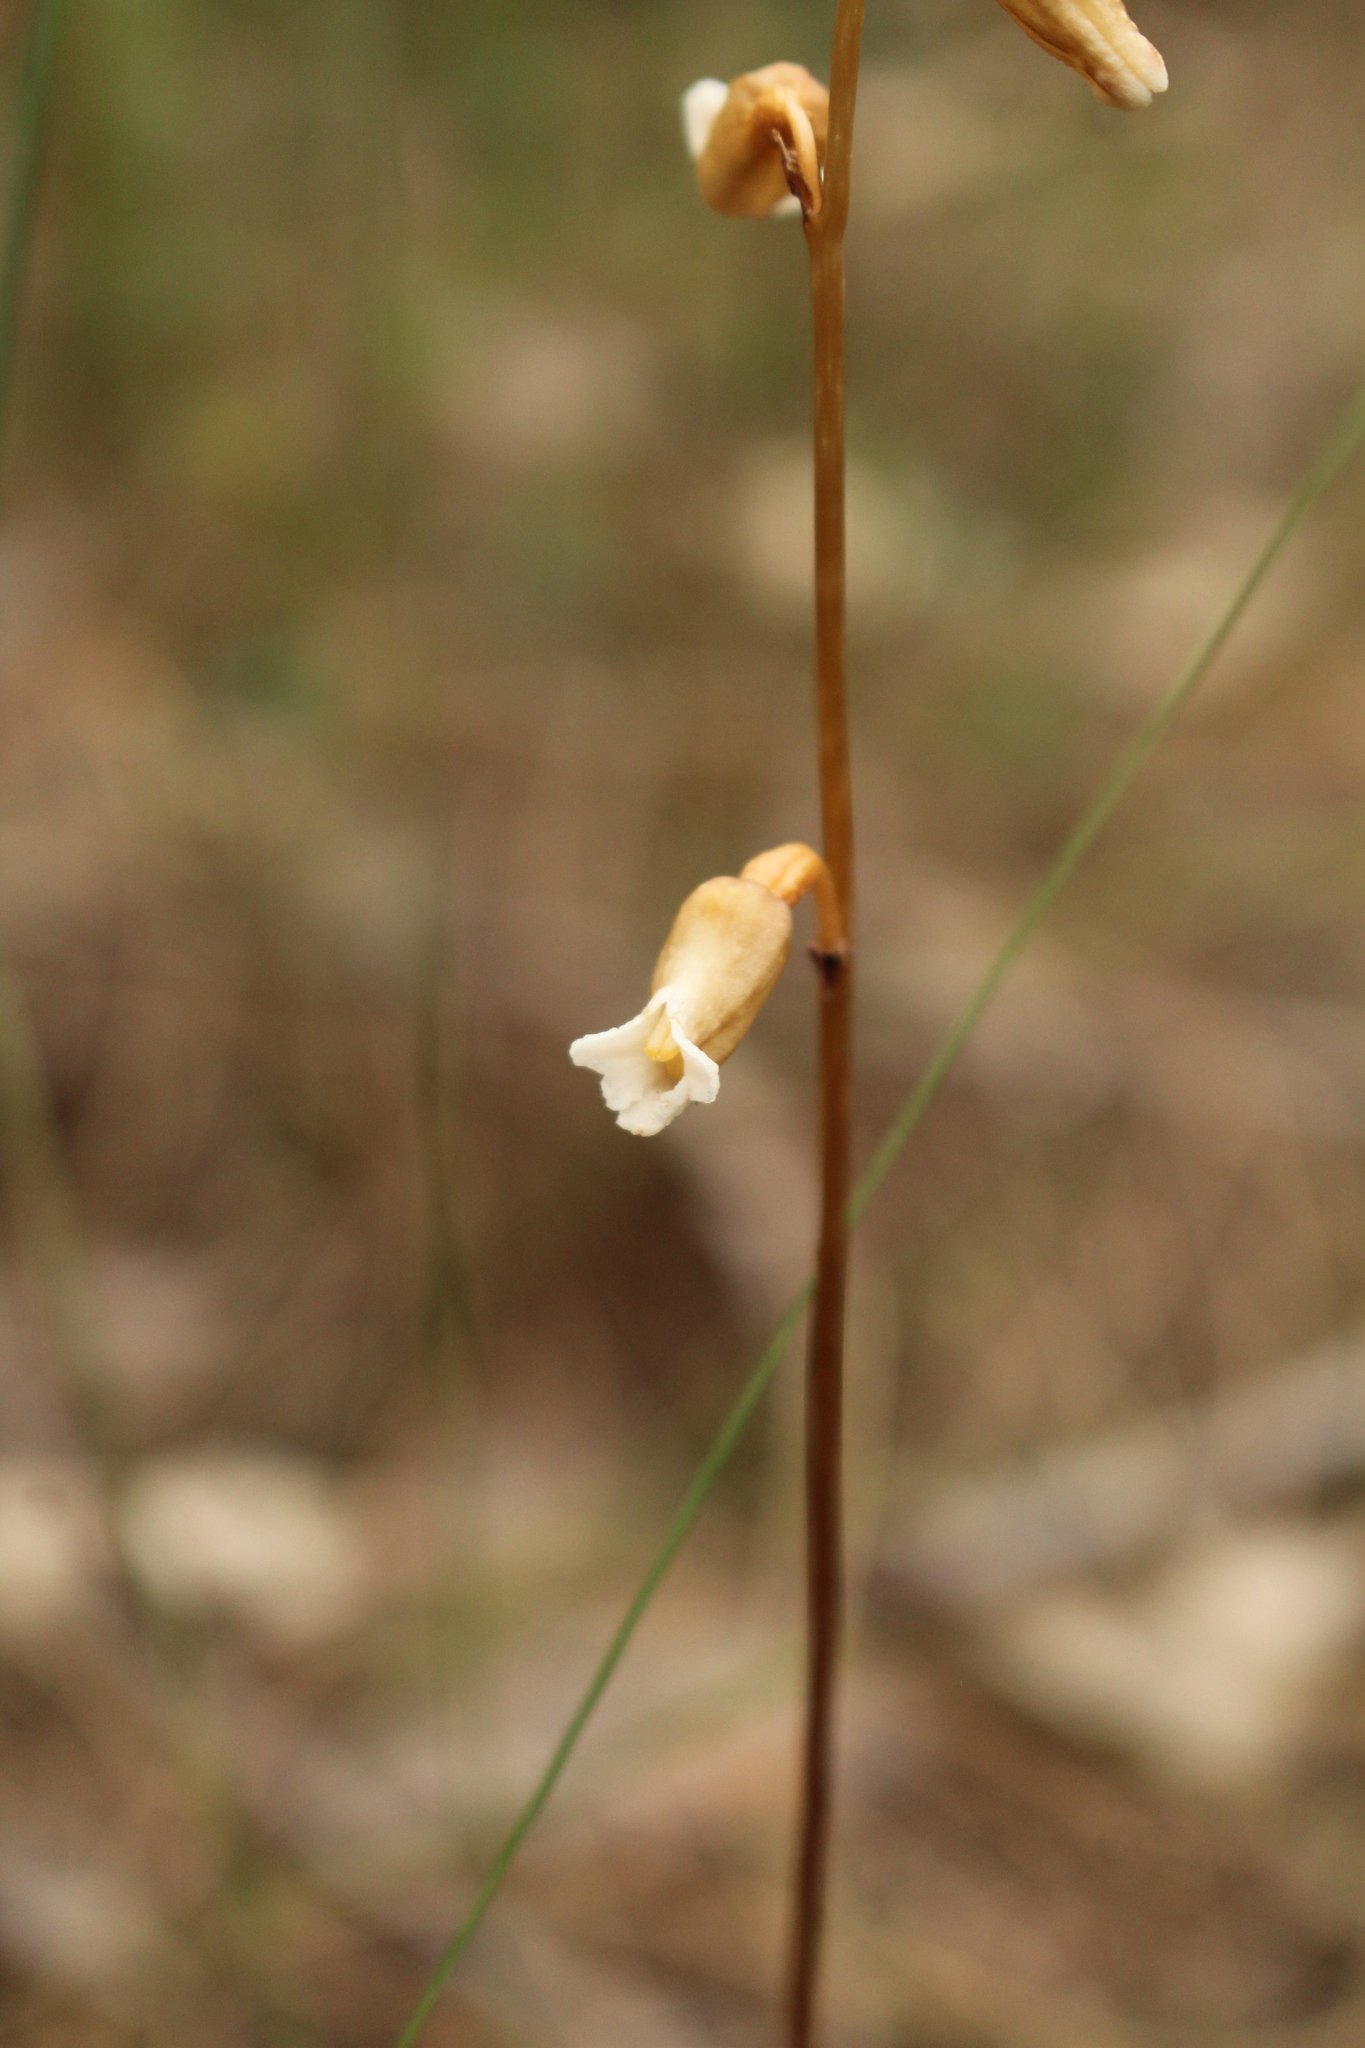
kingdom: Plantae
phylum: Tracheophyta
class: Liliopsida
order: Asparagales
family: Orchidaceae
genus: Gastrodia
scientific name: Gastrodia lacista
